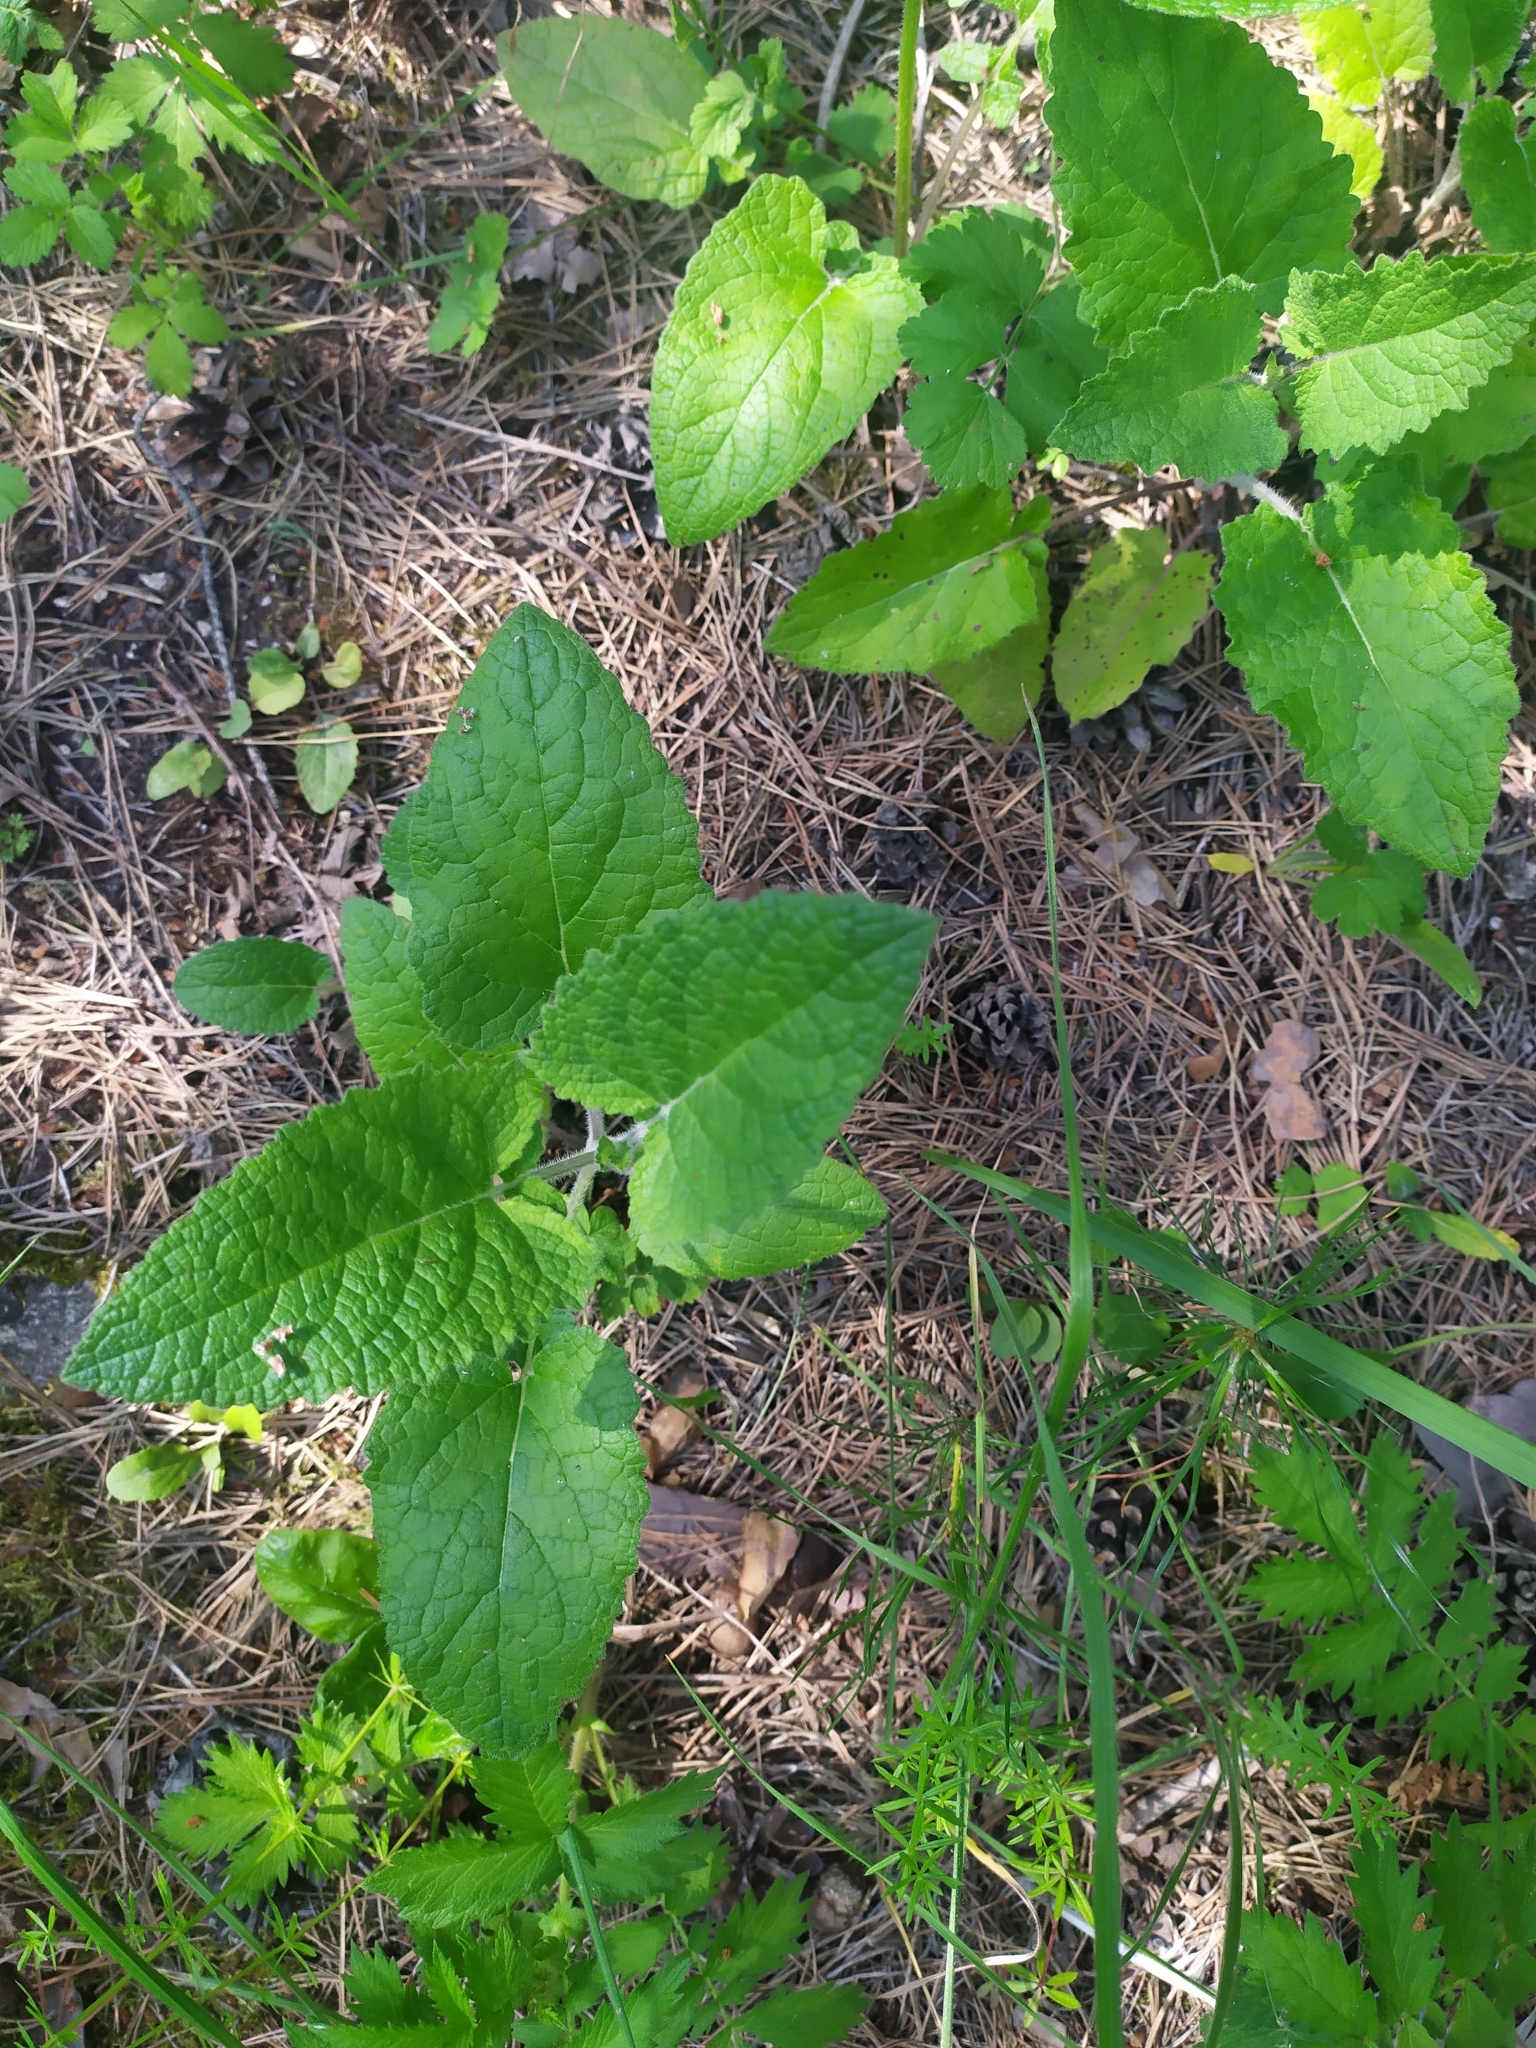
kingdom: Plantae
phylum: Tracheophyta
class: Magnoliopsida
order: Lamiales
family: Lamiaceae
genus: Salvia
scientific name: Salvia verticillata
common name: Whorled clary
